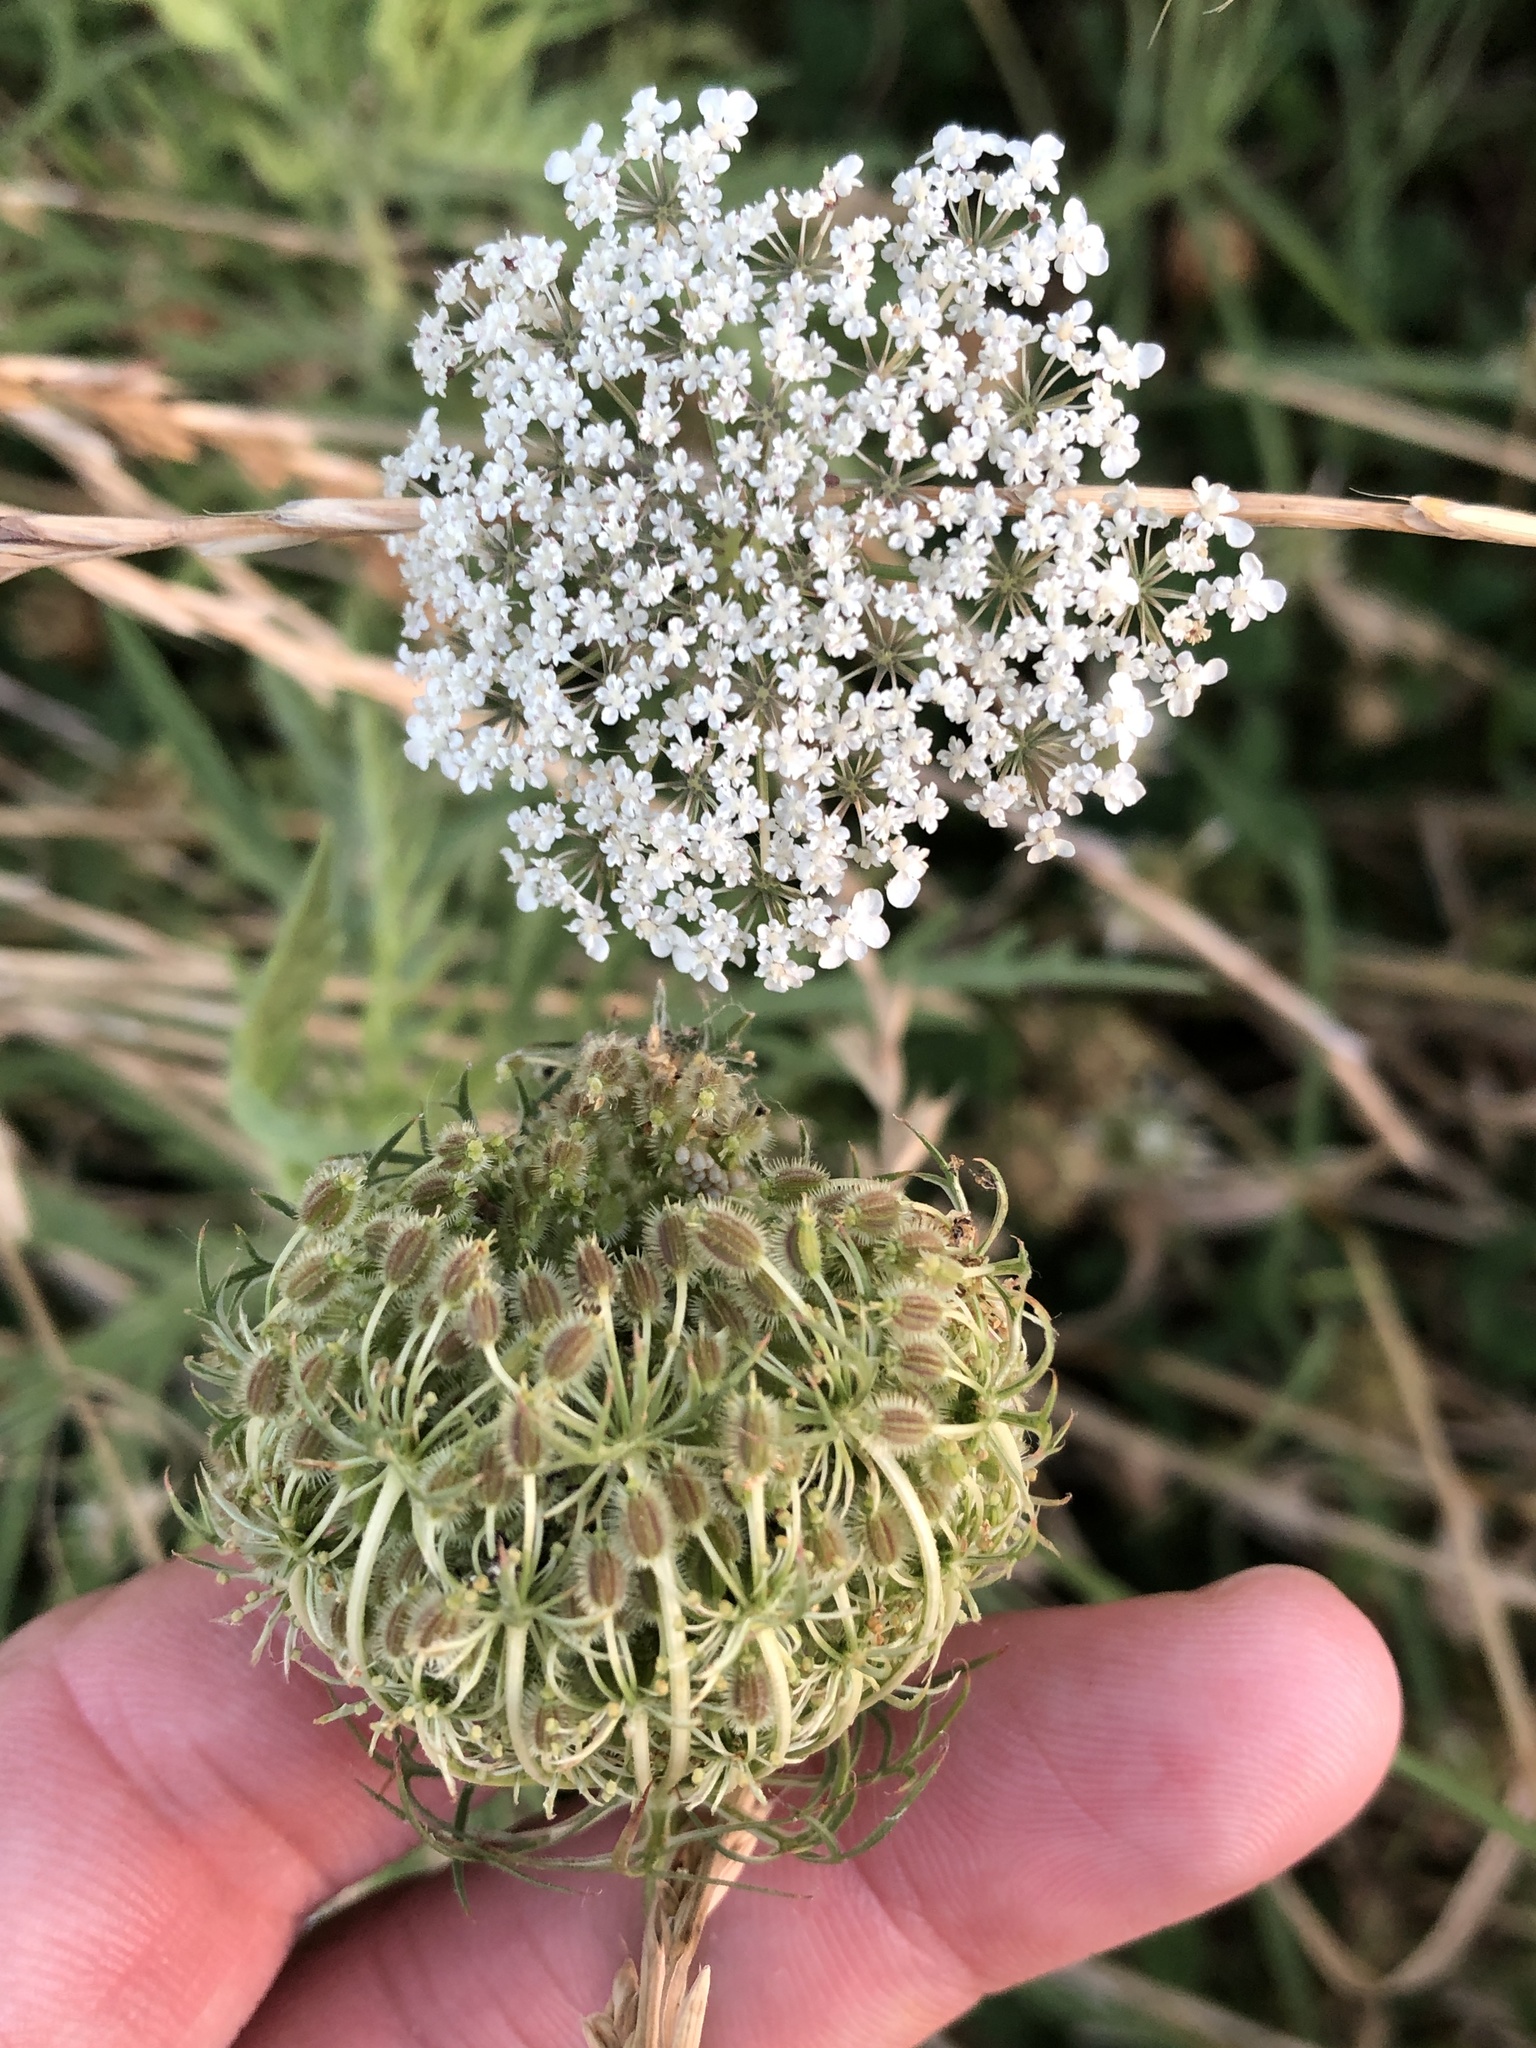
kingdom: Plantae
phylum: Tracheophyta
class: Magnoliopsida
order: Apiales
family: Apiaceae
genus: Daucus
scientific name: Daucus carota
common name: Wild carrot
